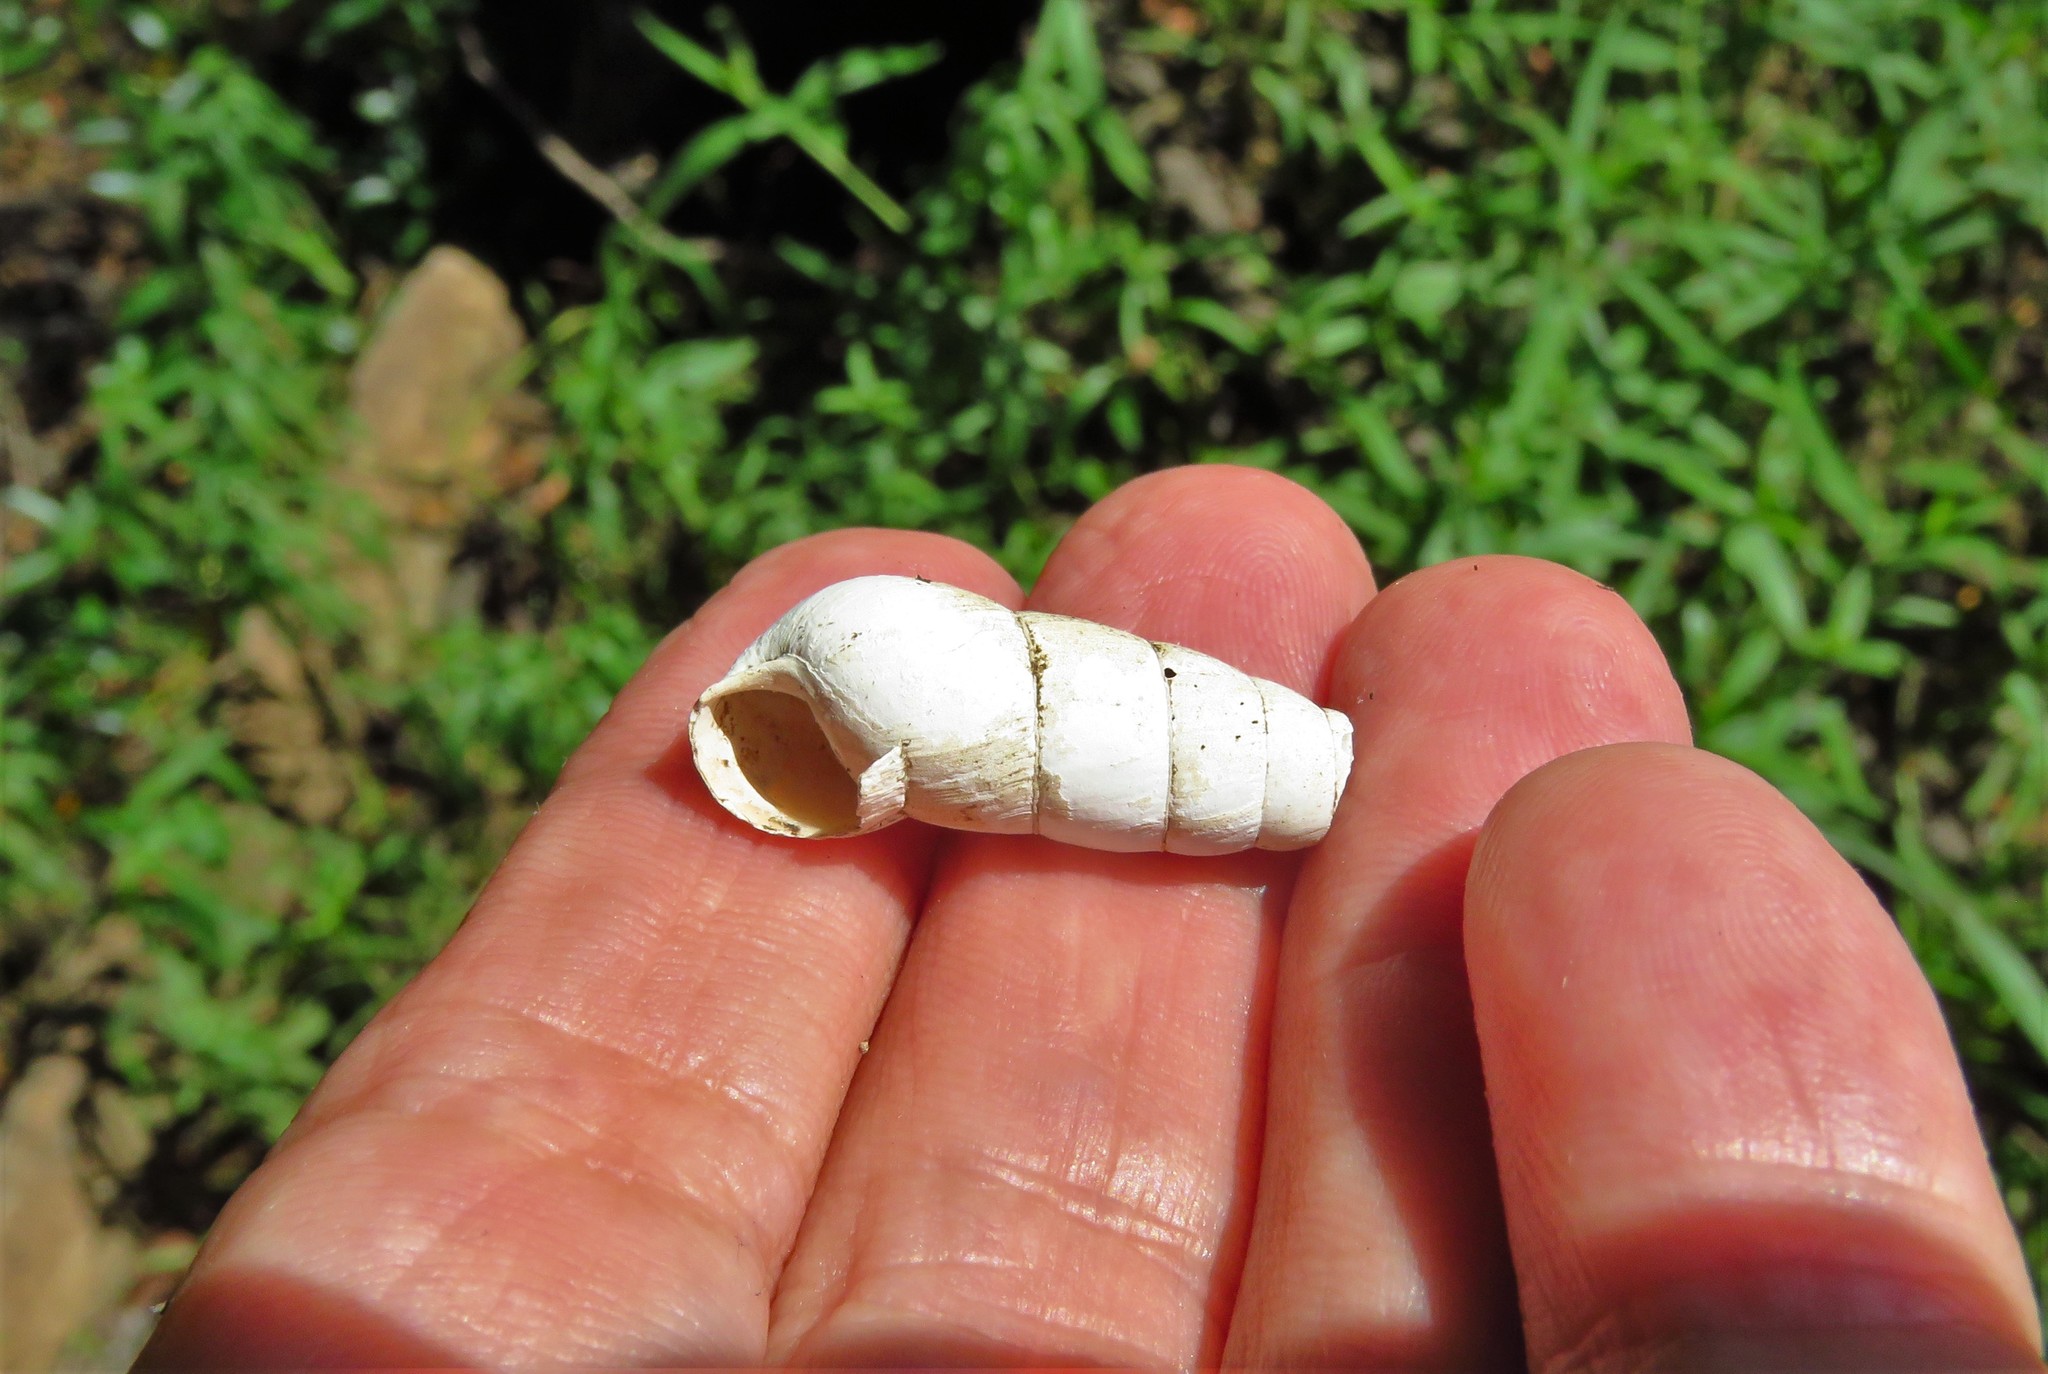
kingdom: Animalia
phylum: Mollusca
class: Gastropoda
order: Stylommatophora
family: Achatinidae
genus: Rumina
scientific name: Rumina decollata
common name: Decollate snail
